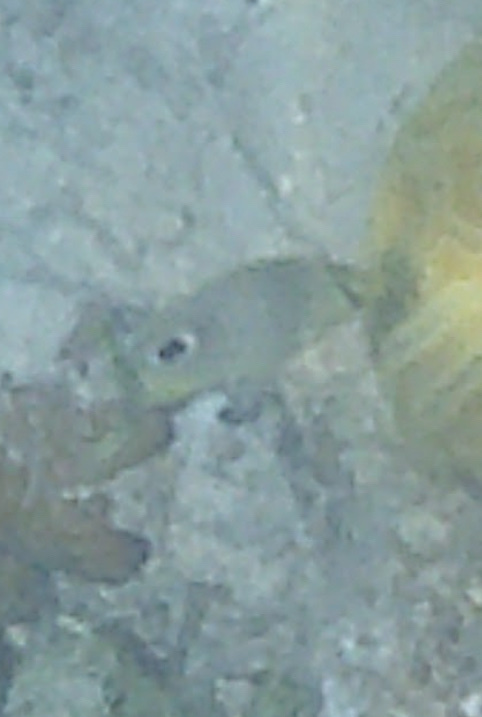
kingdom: Animalia
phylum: Chordata
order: Perciformes
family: Chaetodontidae
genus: Chaetodon
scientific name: Chaetodon capistratus
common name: Kete
